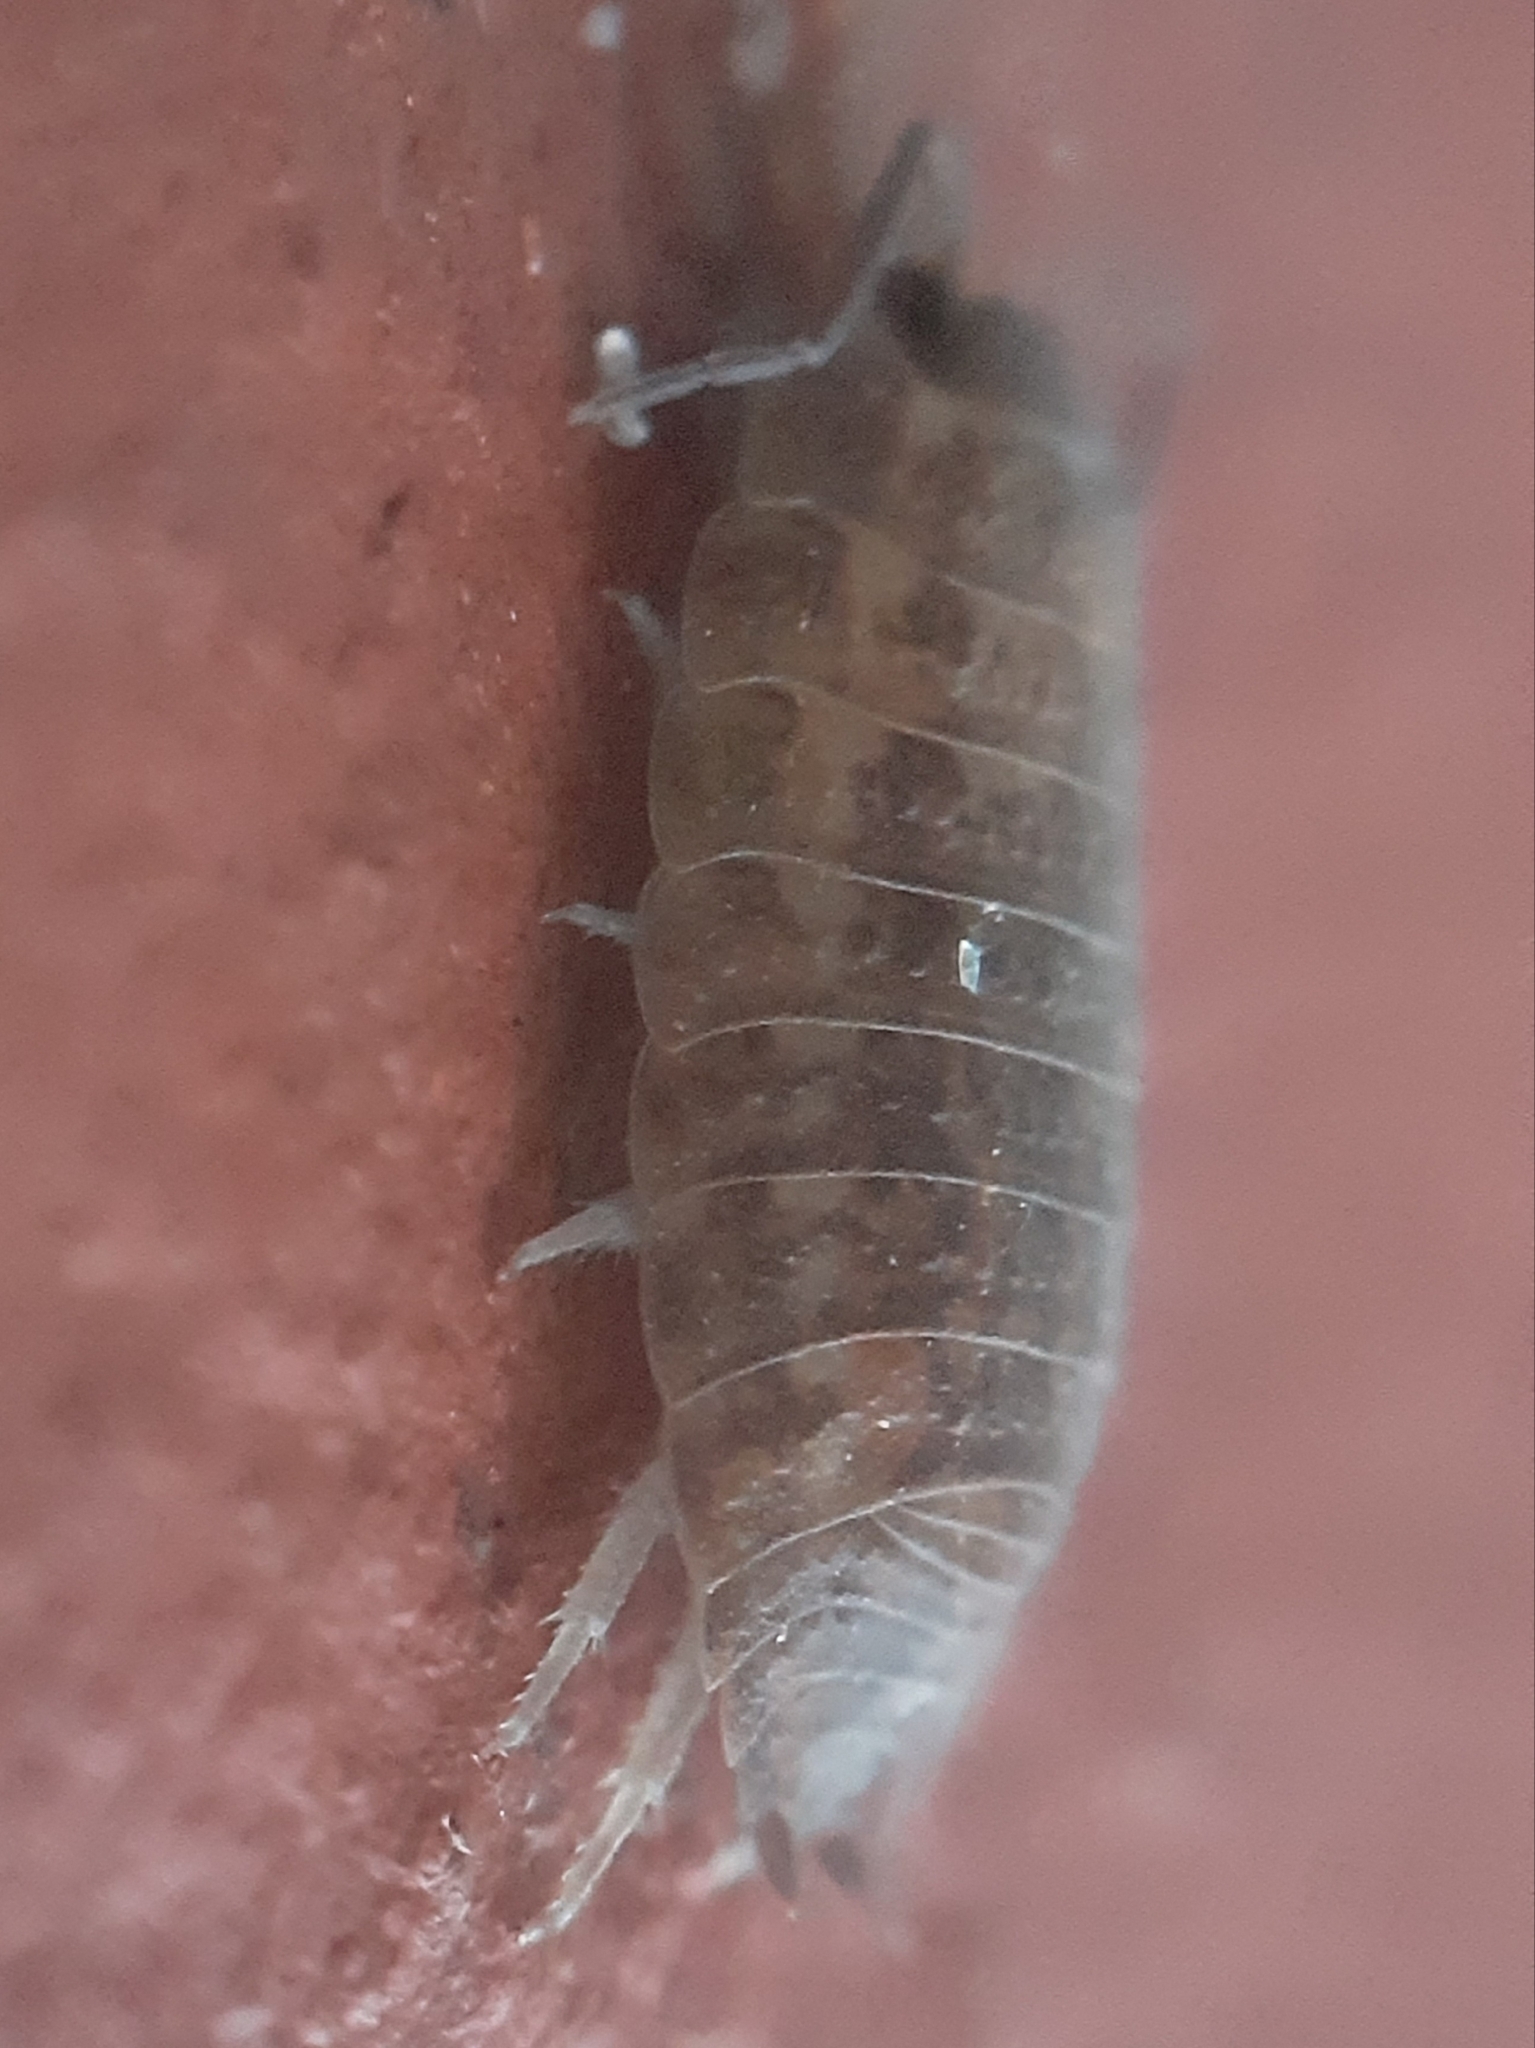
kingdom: Animalia
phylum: Arthropoda
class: Malacostraca
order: Isopoda
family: Trachelipodidae
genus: Porcellium
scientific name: Porcellium collicola
